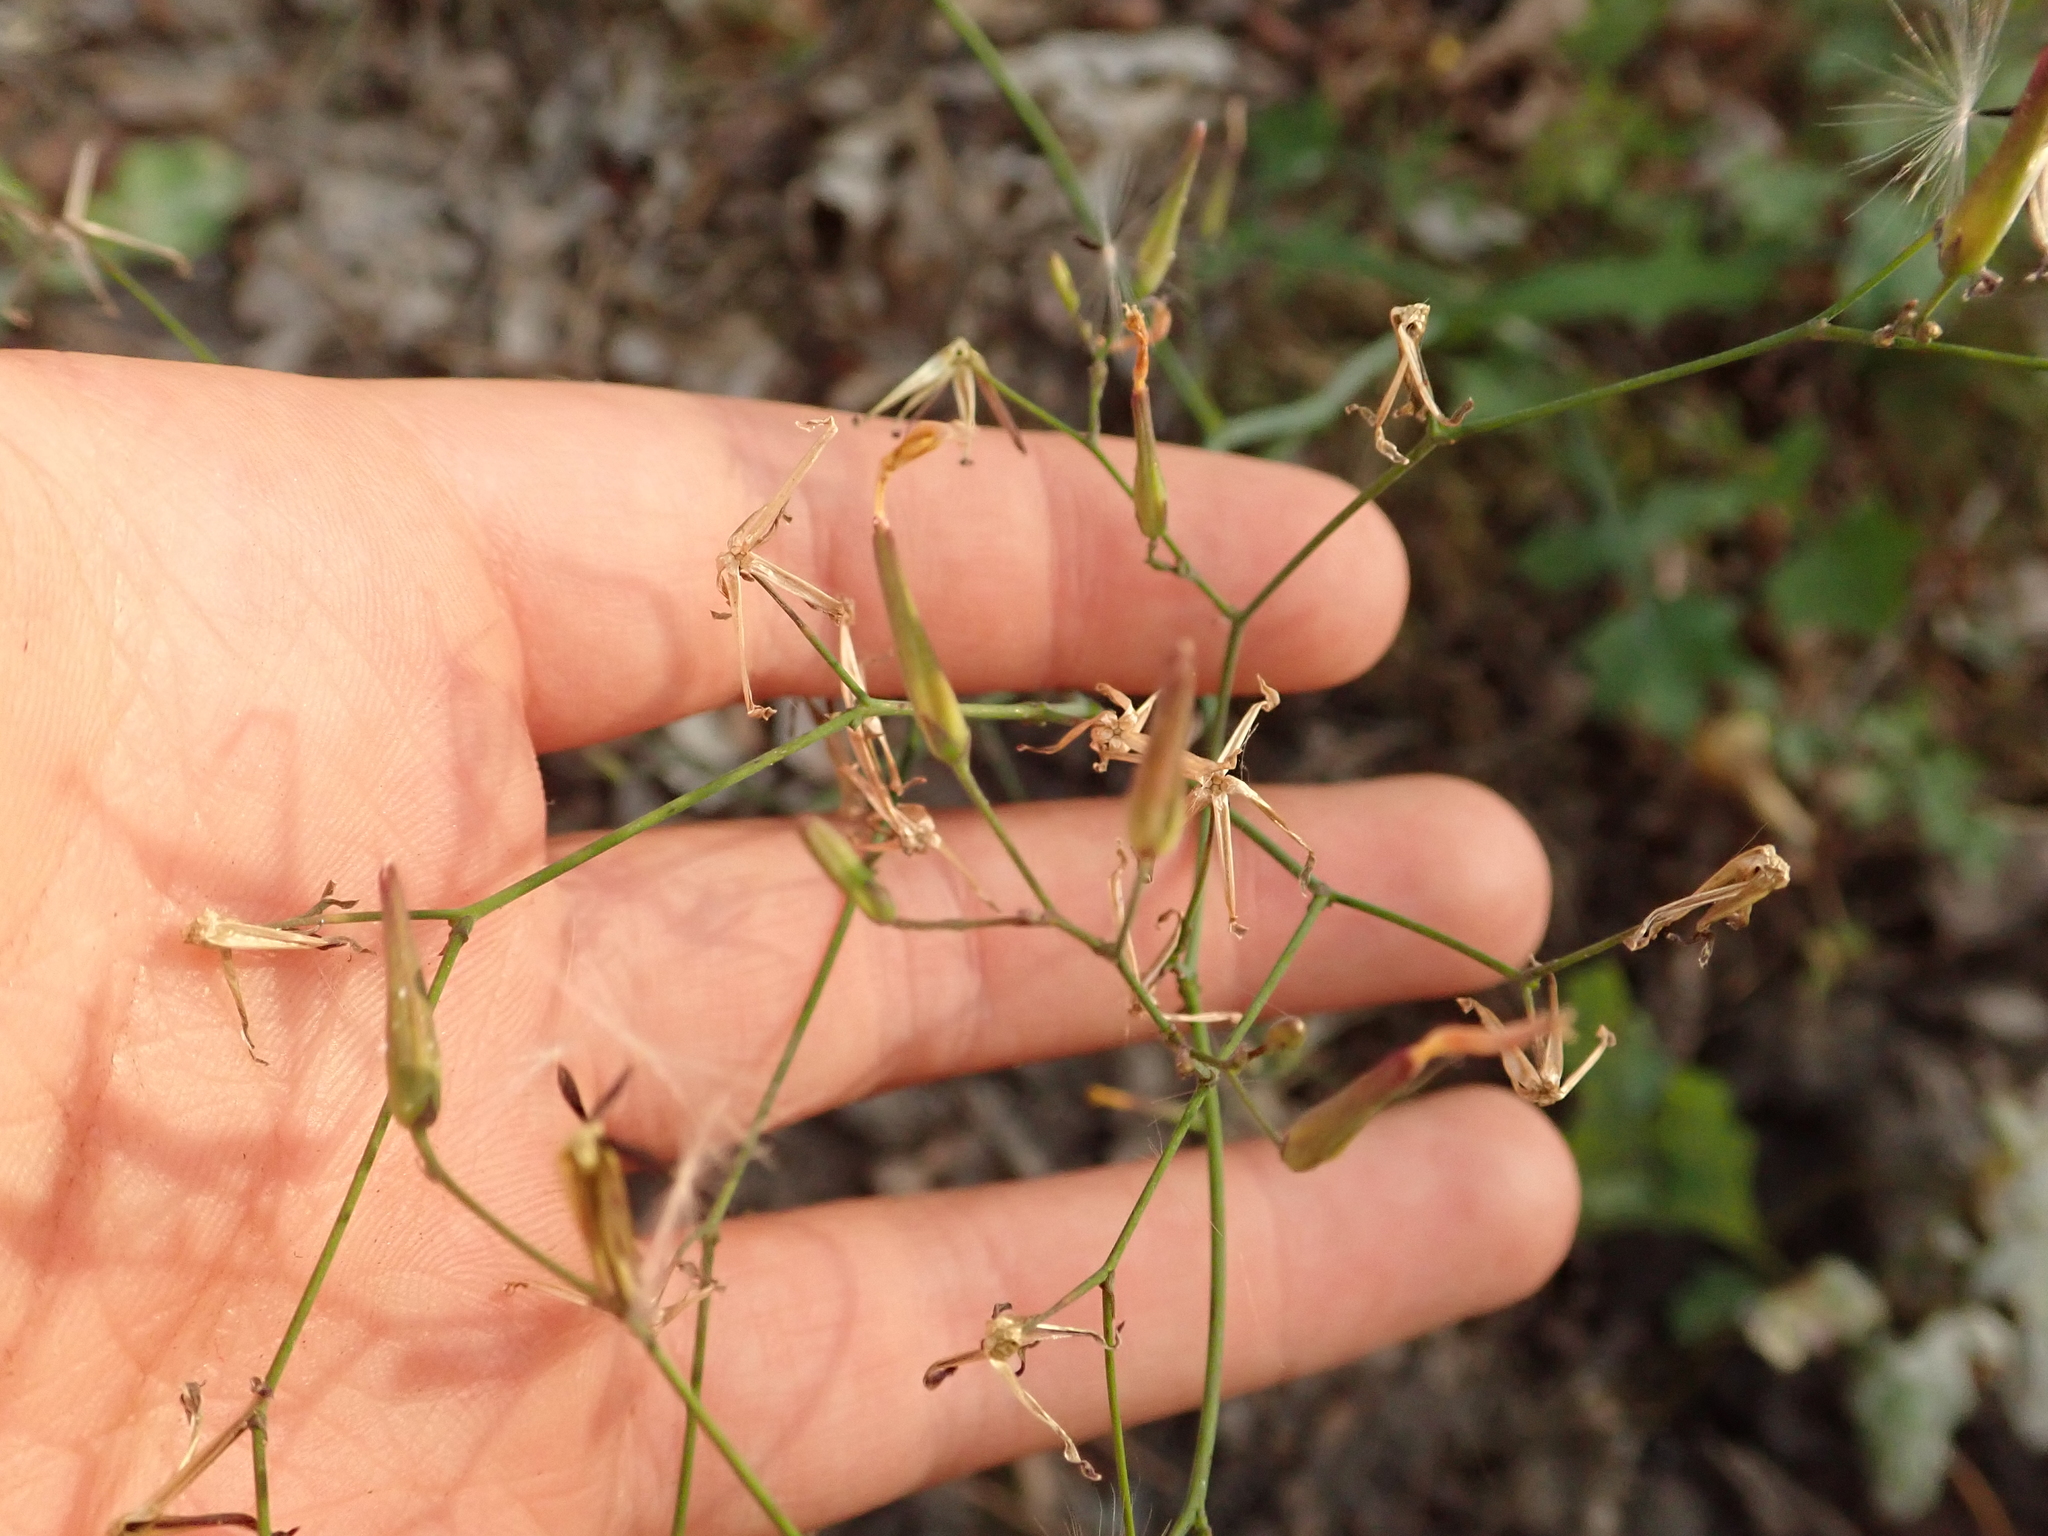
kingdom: Plantae
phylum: Tracheophyta
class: Magnoliopsida
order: Asterales
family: Asteraceae
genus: Mycelis
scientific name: Mycelis muralis
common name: Wall lettuce
